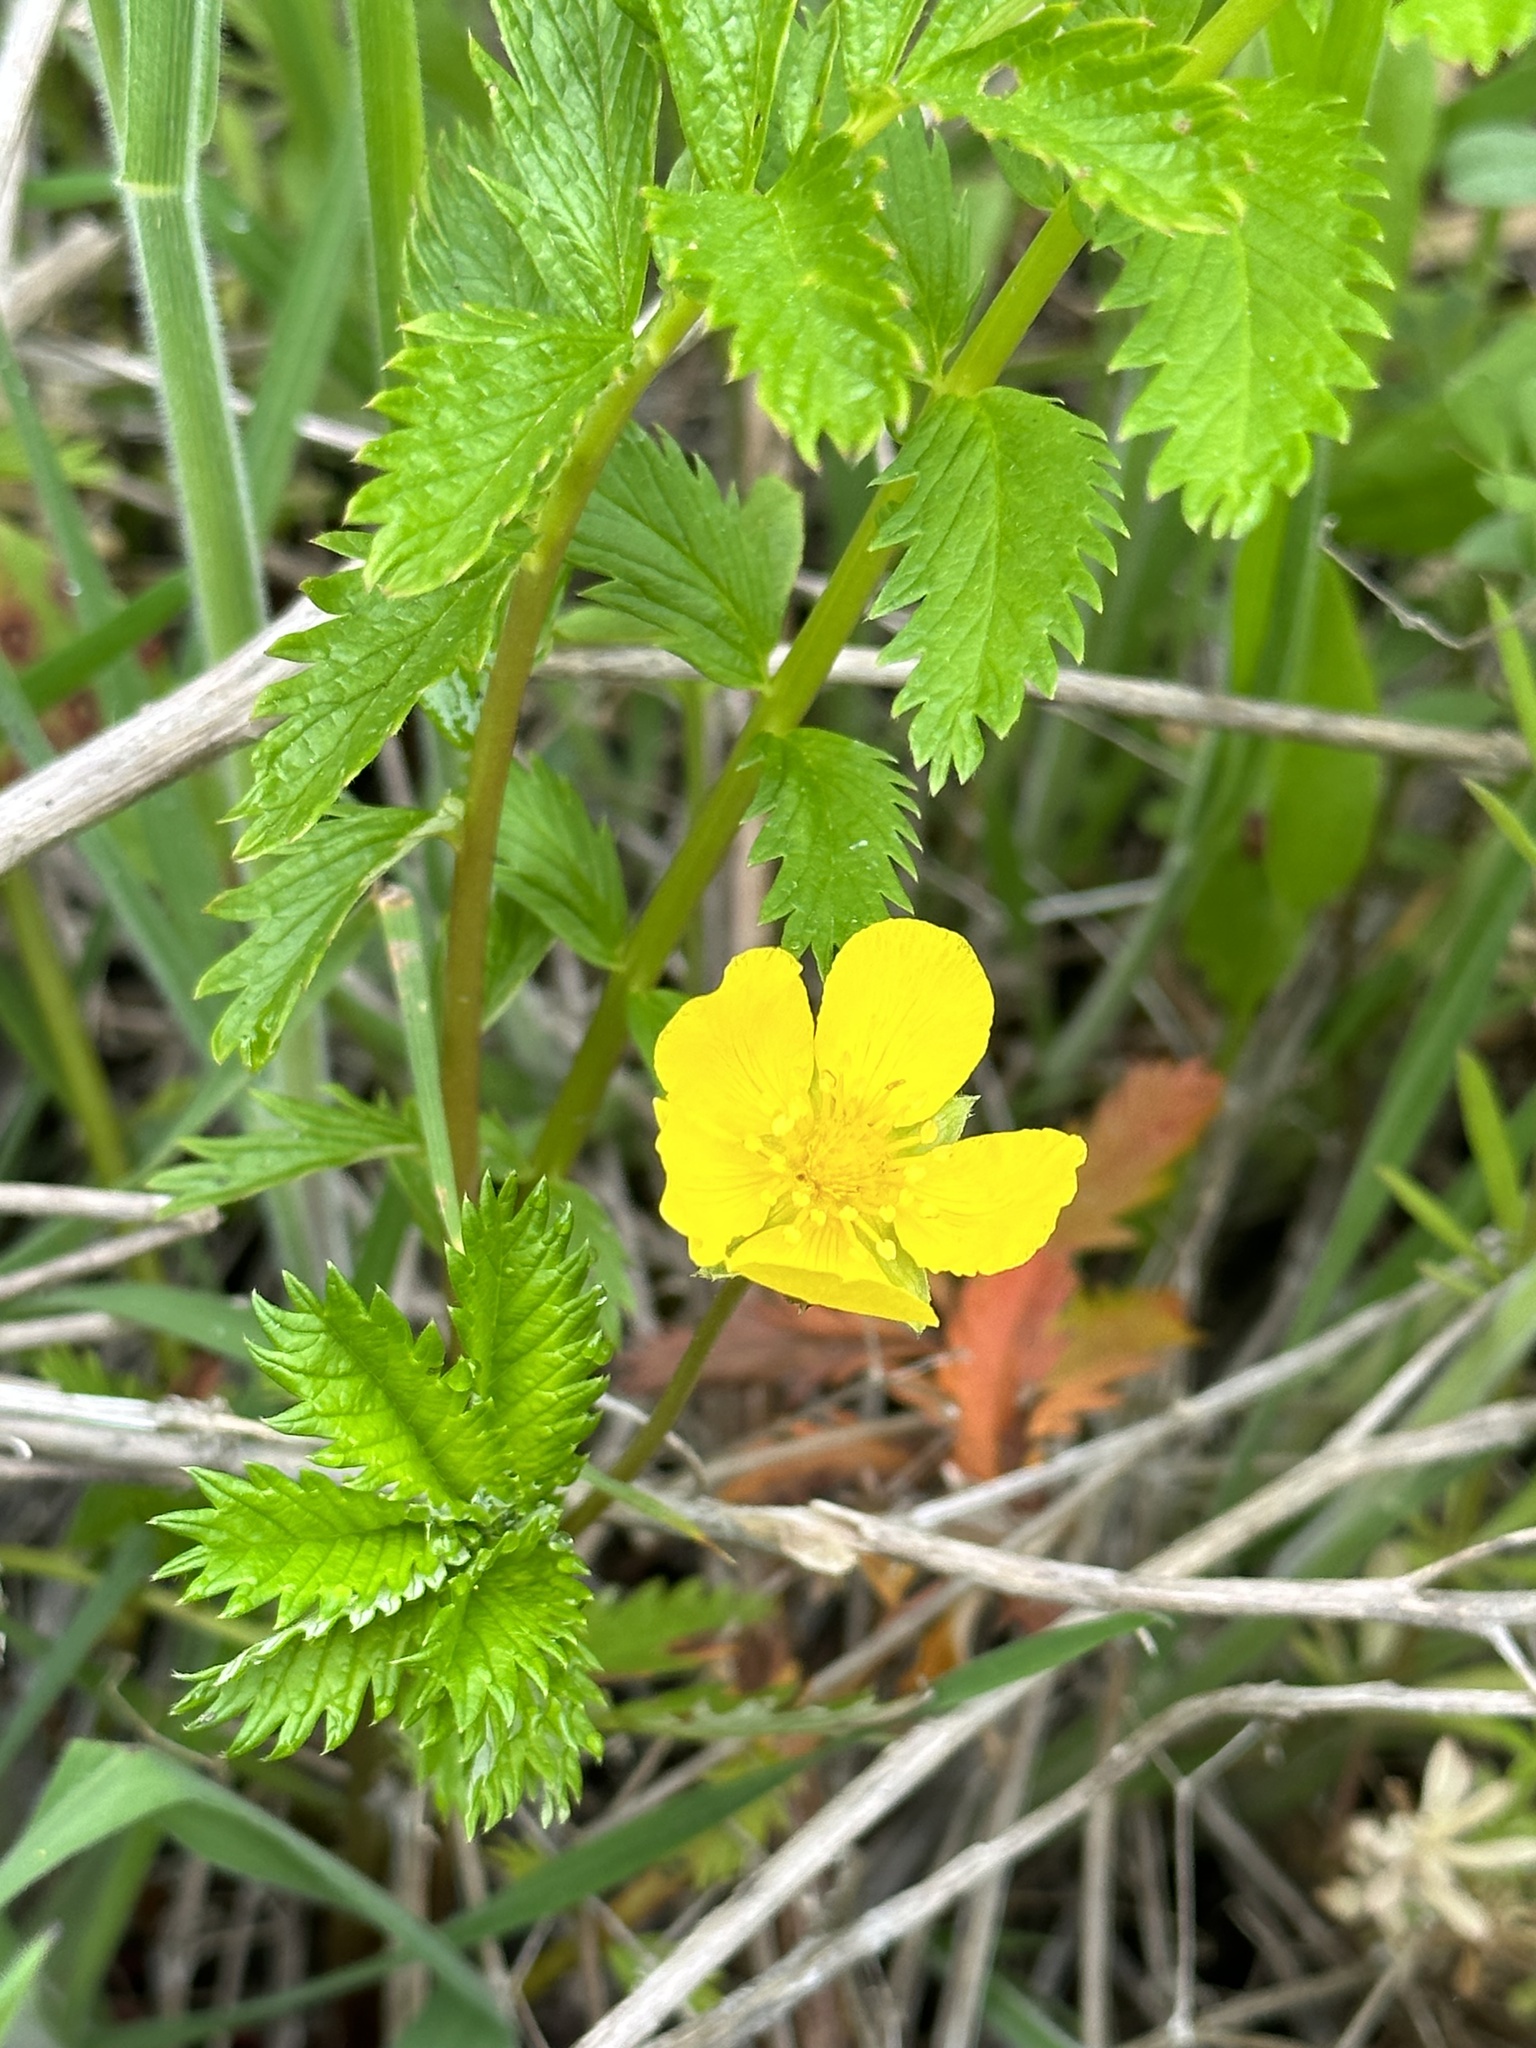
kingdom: Plantae
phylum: Tracheophyta
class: Magnoliopsida
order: Rosales
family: Rosaceae
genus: Argentina
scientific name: Argentina anserina
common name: Common silverweed
